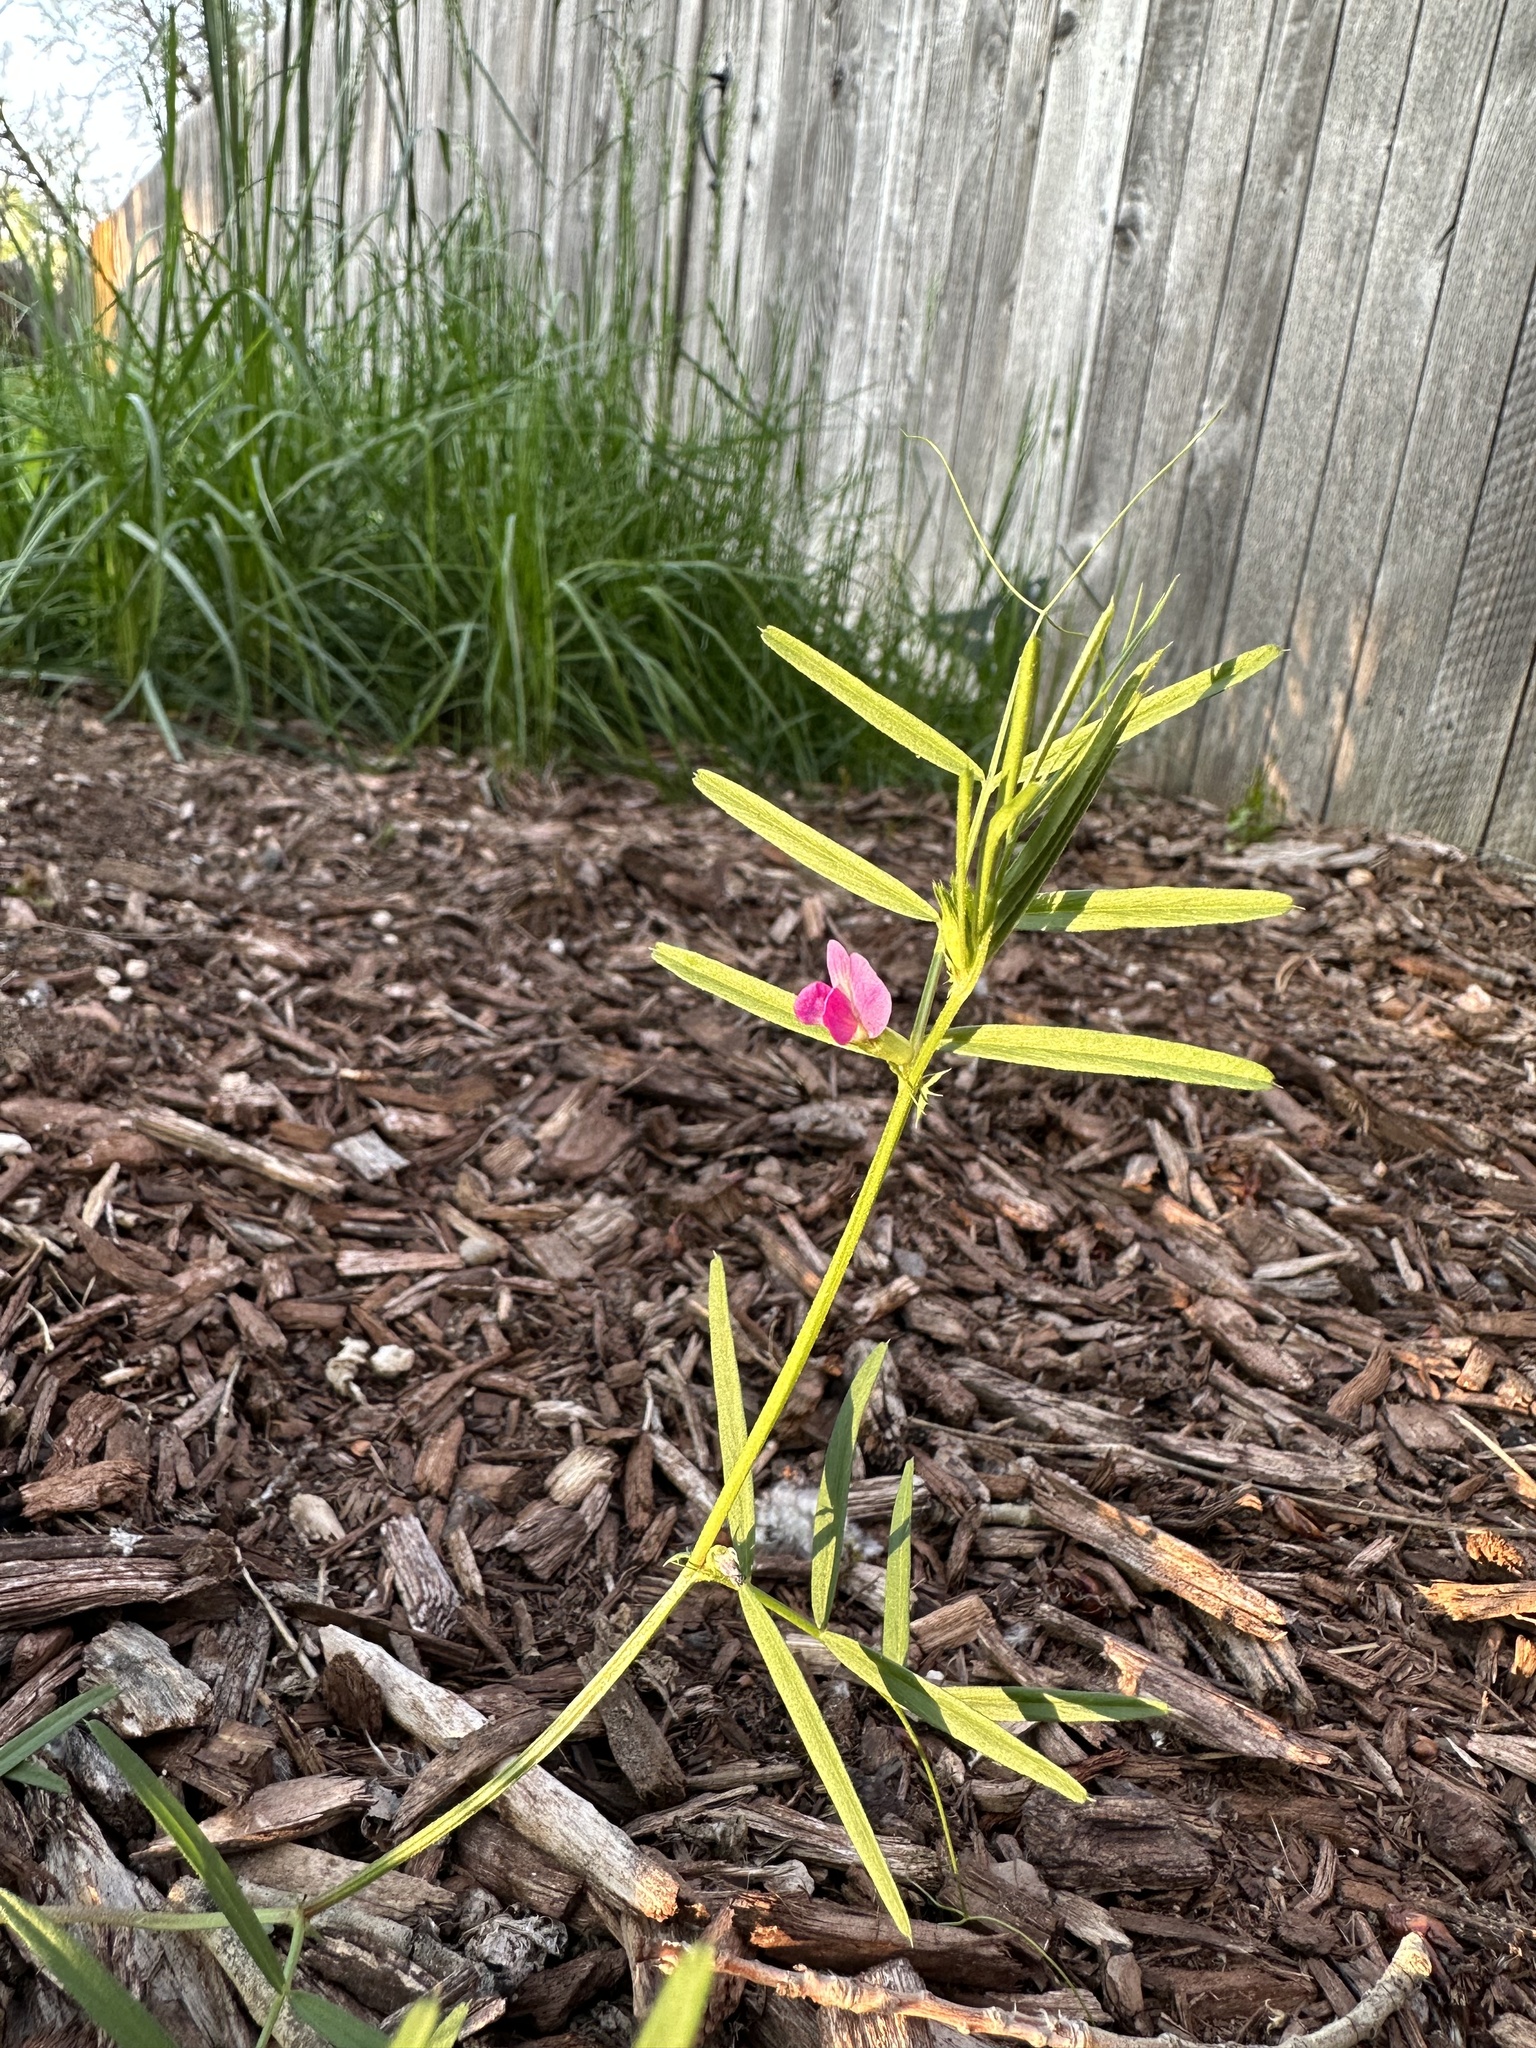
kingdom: Plantae
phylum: Tracheophyta
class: Magnoliopsida
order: Fabales
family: Fabaceae
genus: Vicia
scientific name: Vicia sativa
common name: Garden vetch
